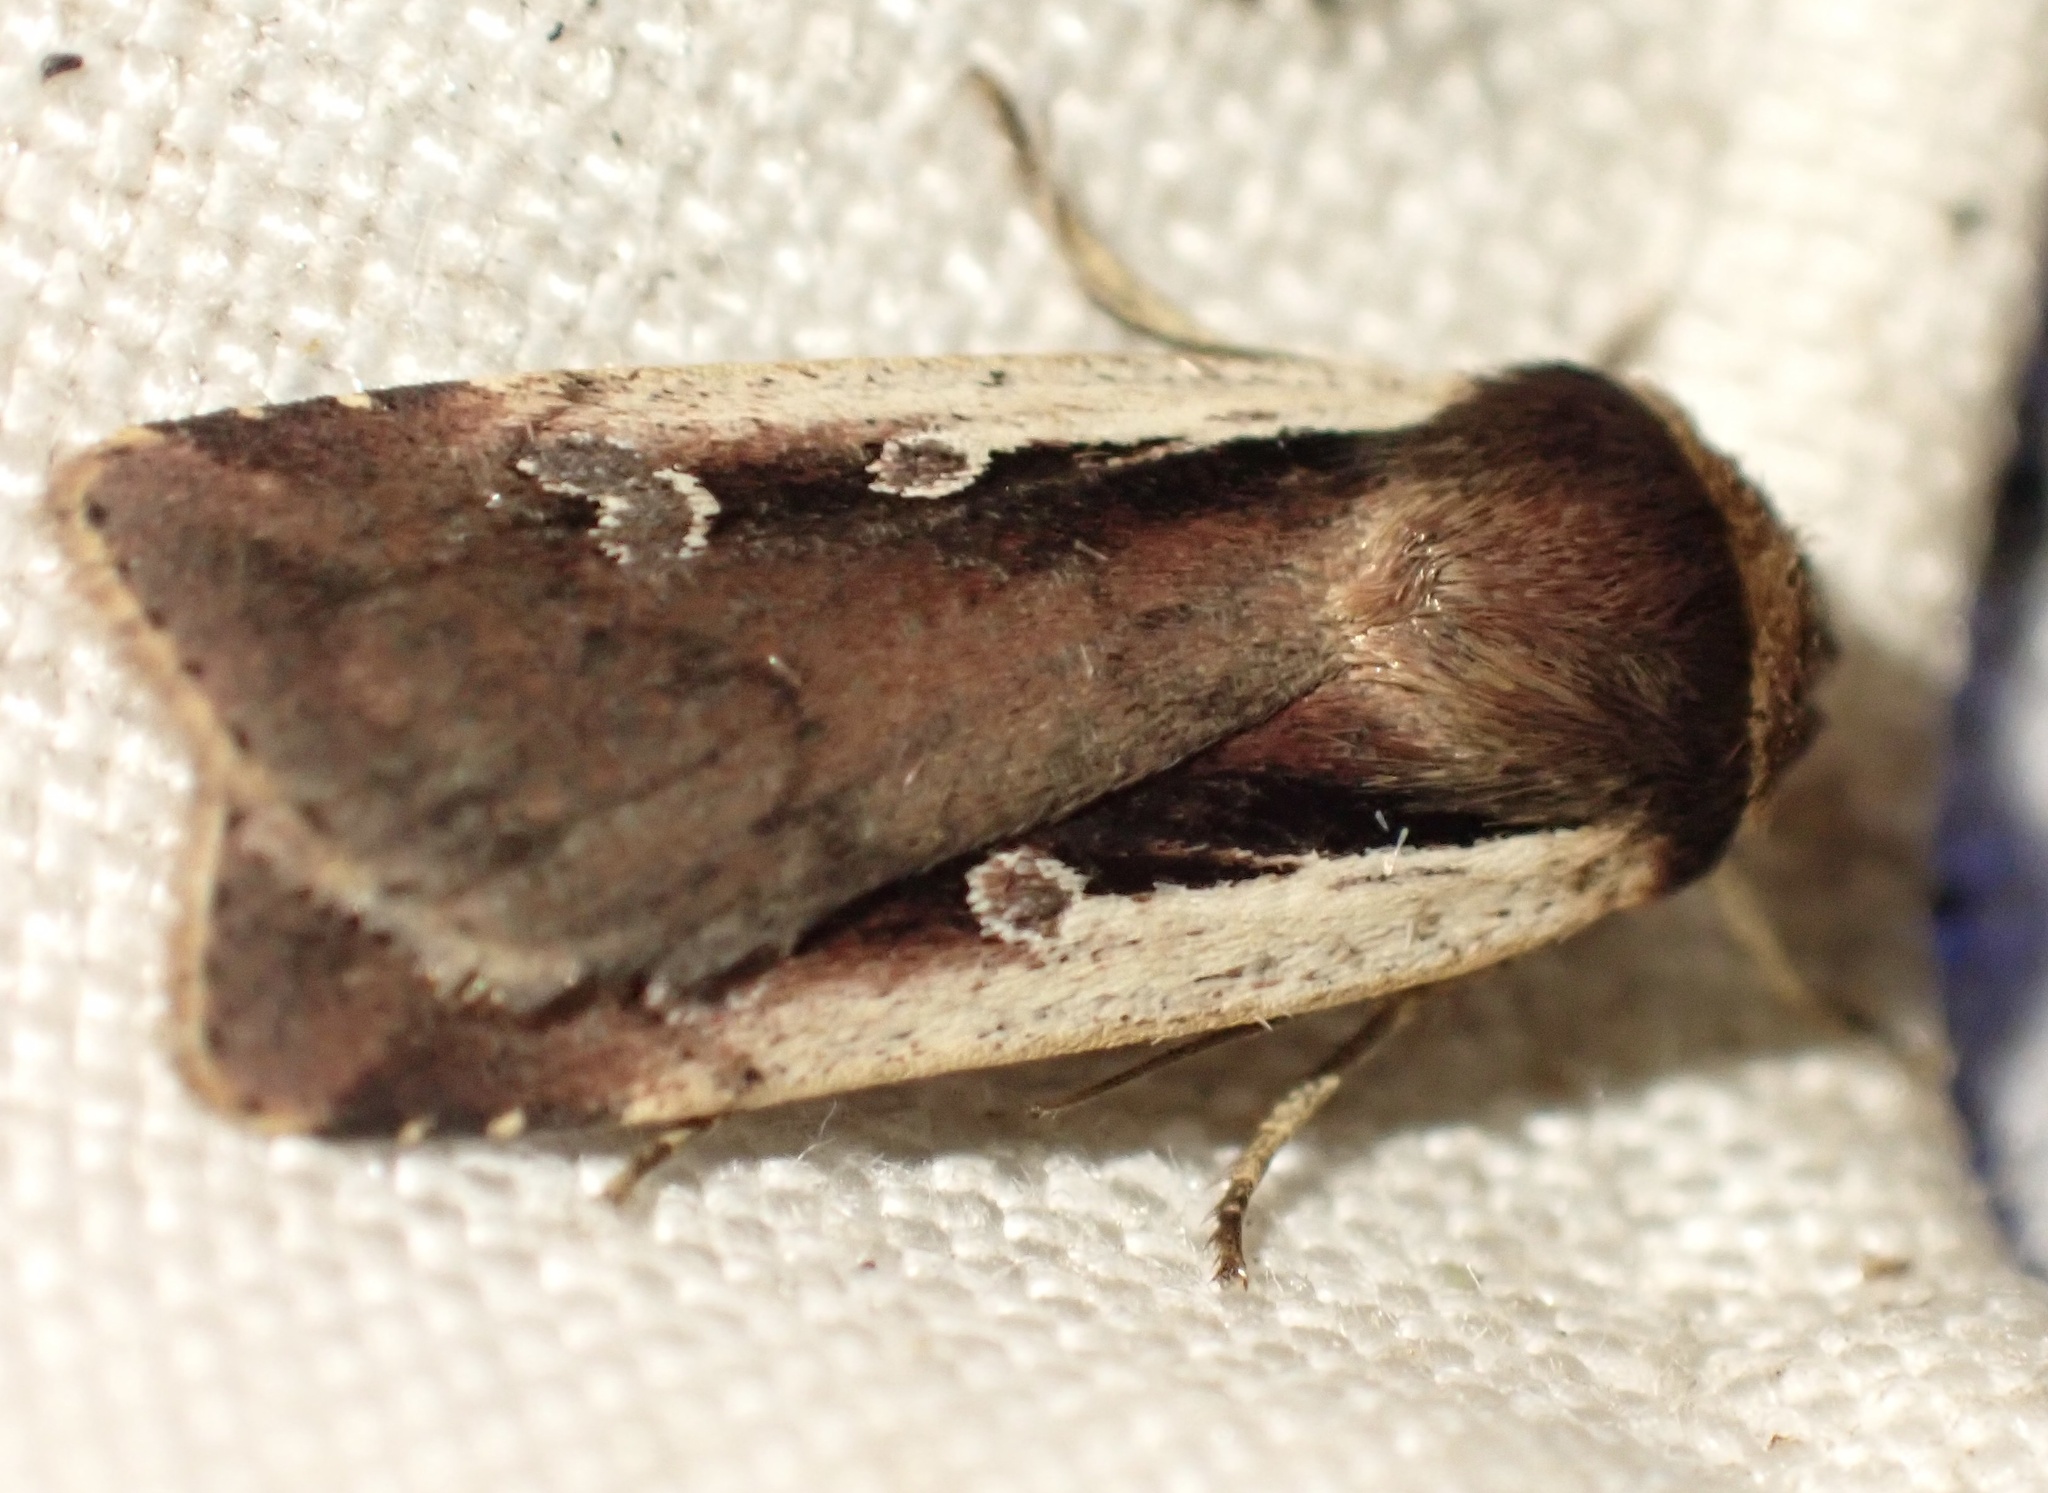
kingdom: Animalia
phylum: Arthropoda
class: Insecta
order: Lepidoptera
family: Noctuidae
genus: Ochropleura
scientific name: Ochropleura plecta
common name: Flame shoulder
